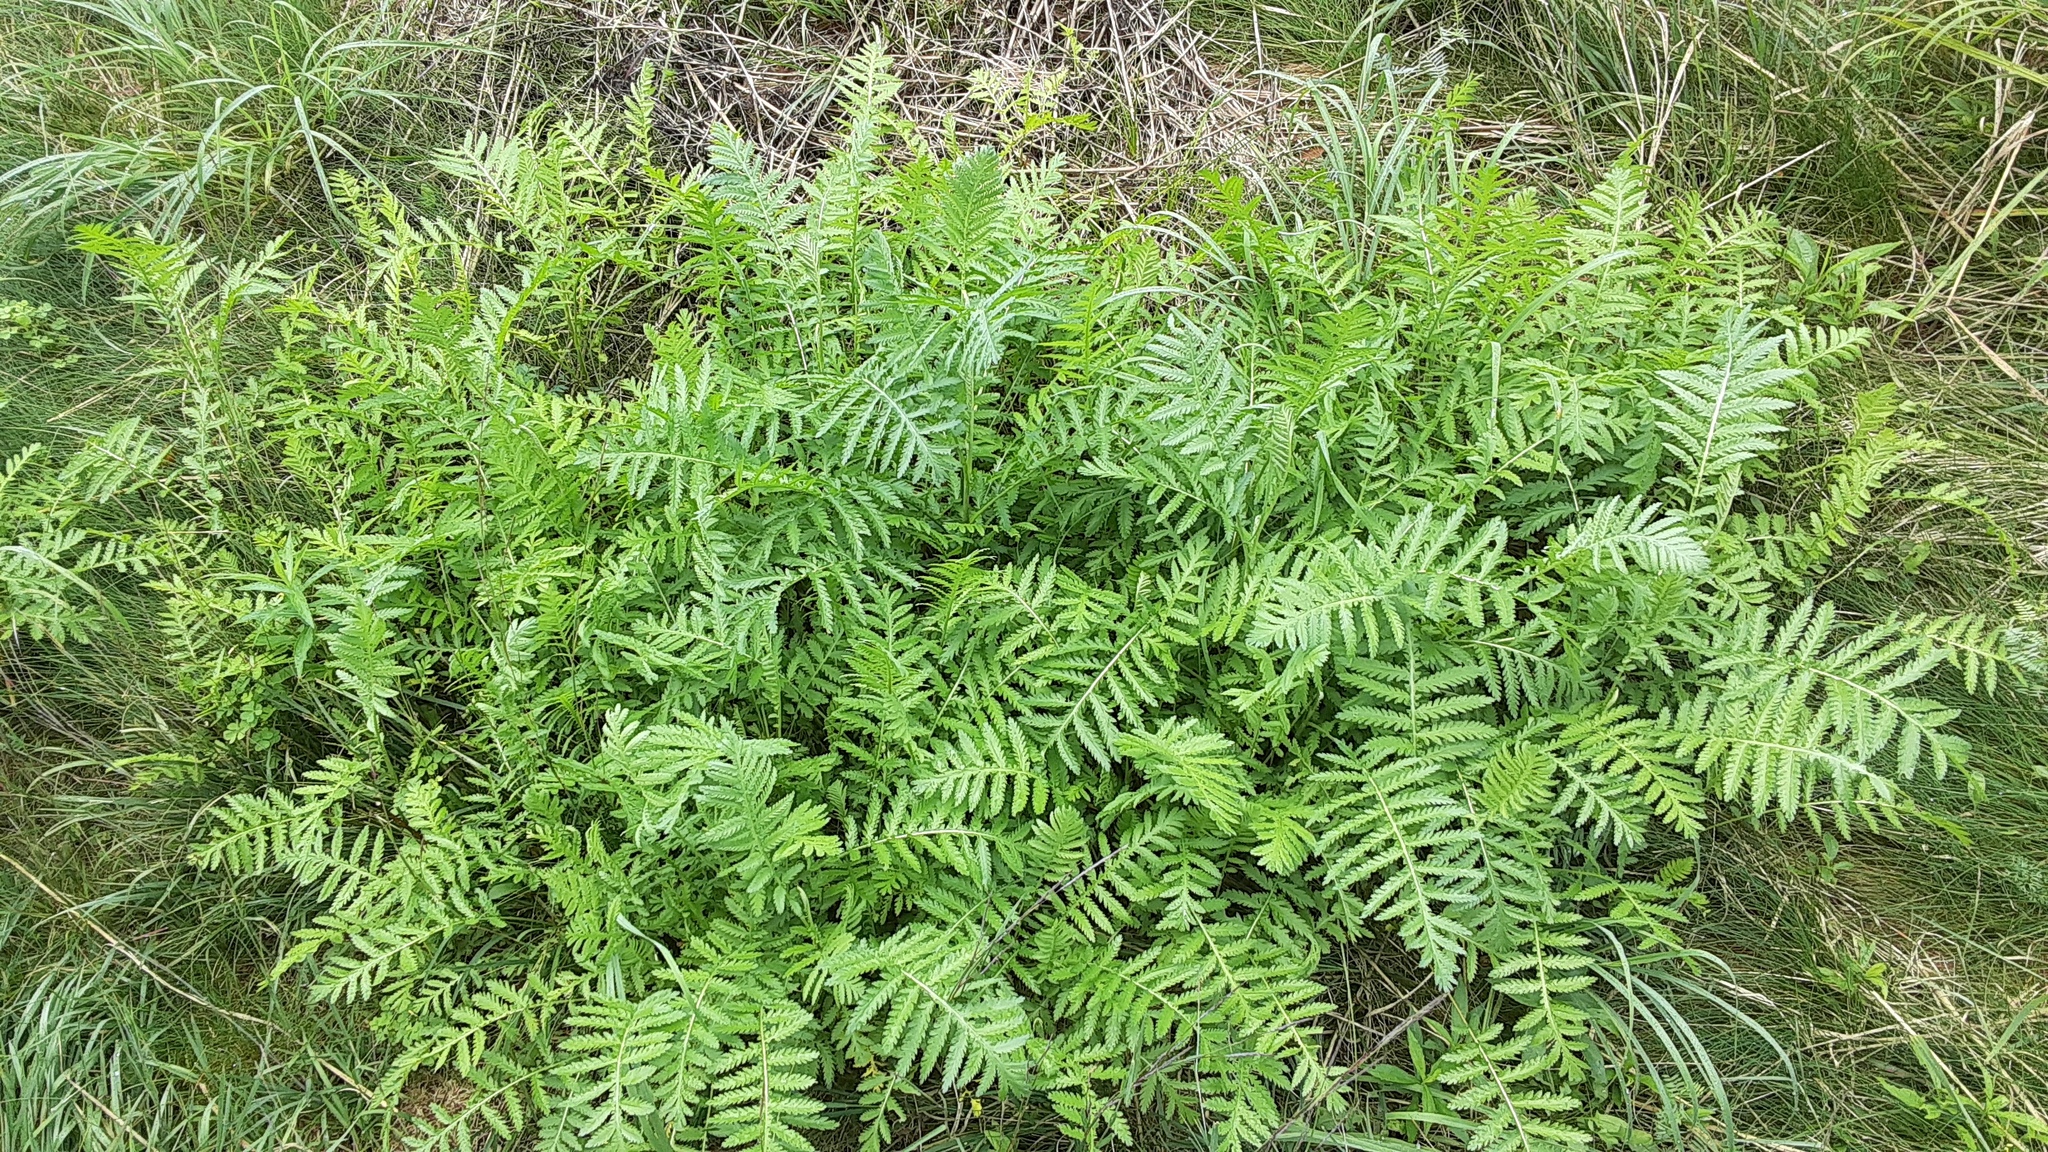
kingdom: Plantae
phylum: Tracheophyta
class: Magnoliopsida
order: Asterales
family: Asteraceae
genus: Tanacetum
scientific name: Tanacetum vulgare
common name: Common tansy
